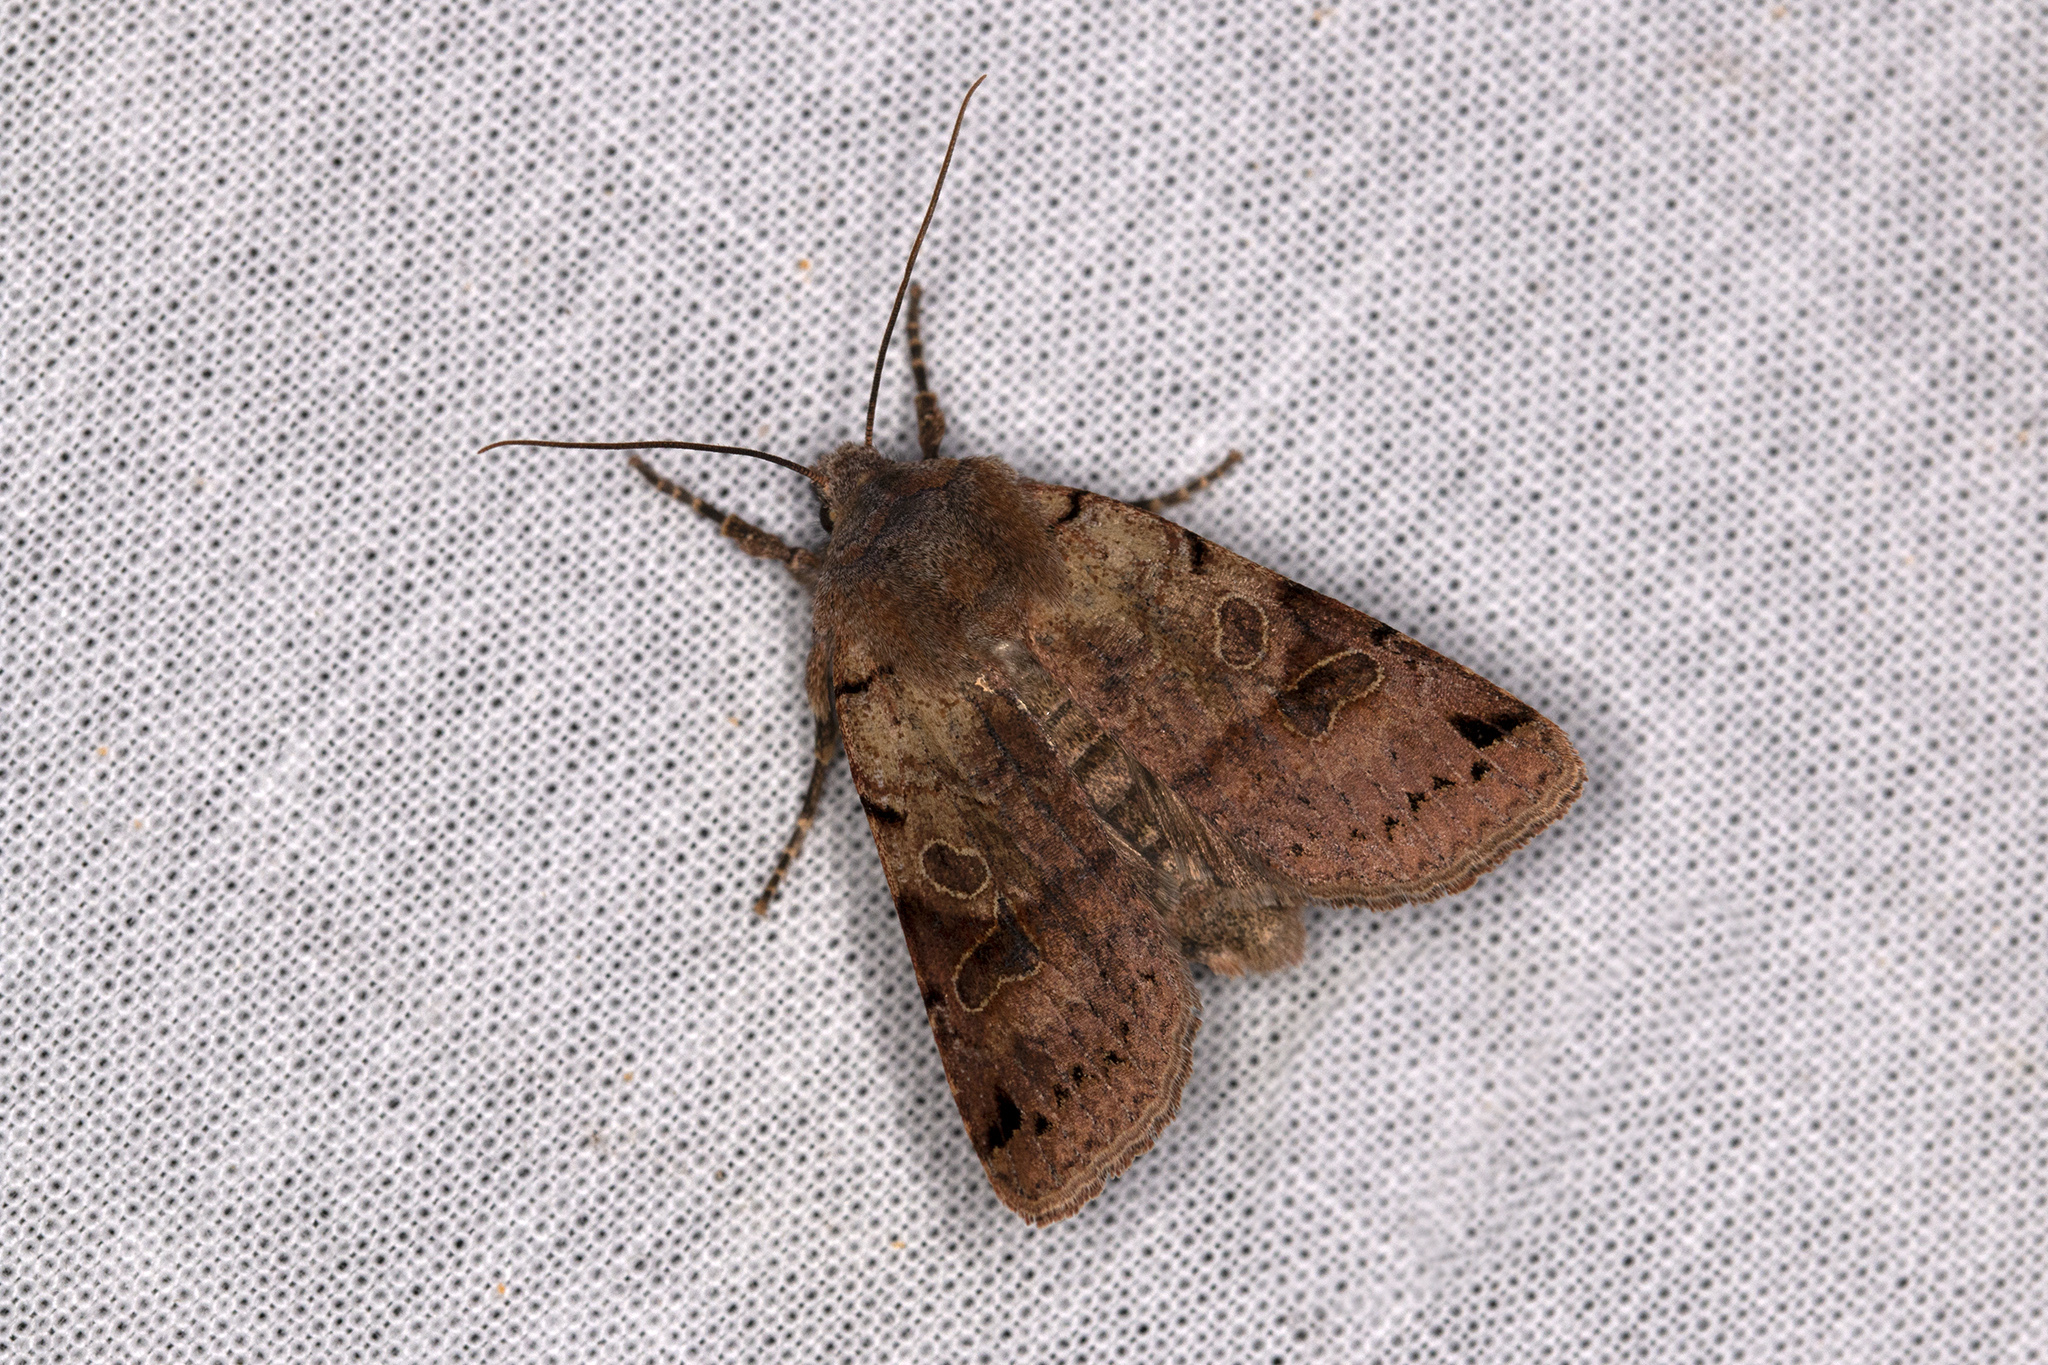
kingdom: Animalia
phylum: Arthropoda
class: Insecta
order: Lepidoptera
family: Noctuidae
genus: Agrochola
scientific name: Agrochola litura
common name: Brown-spot pinion
